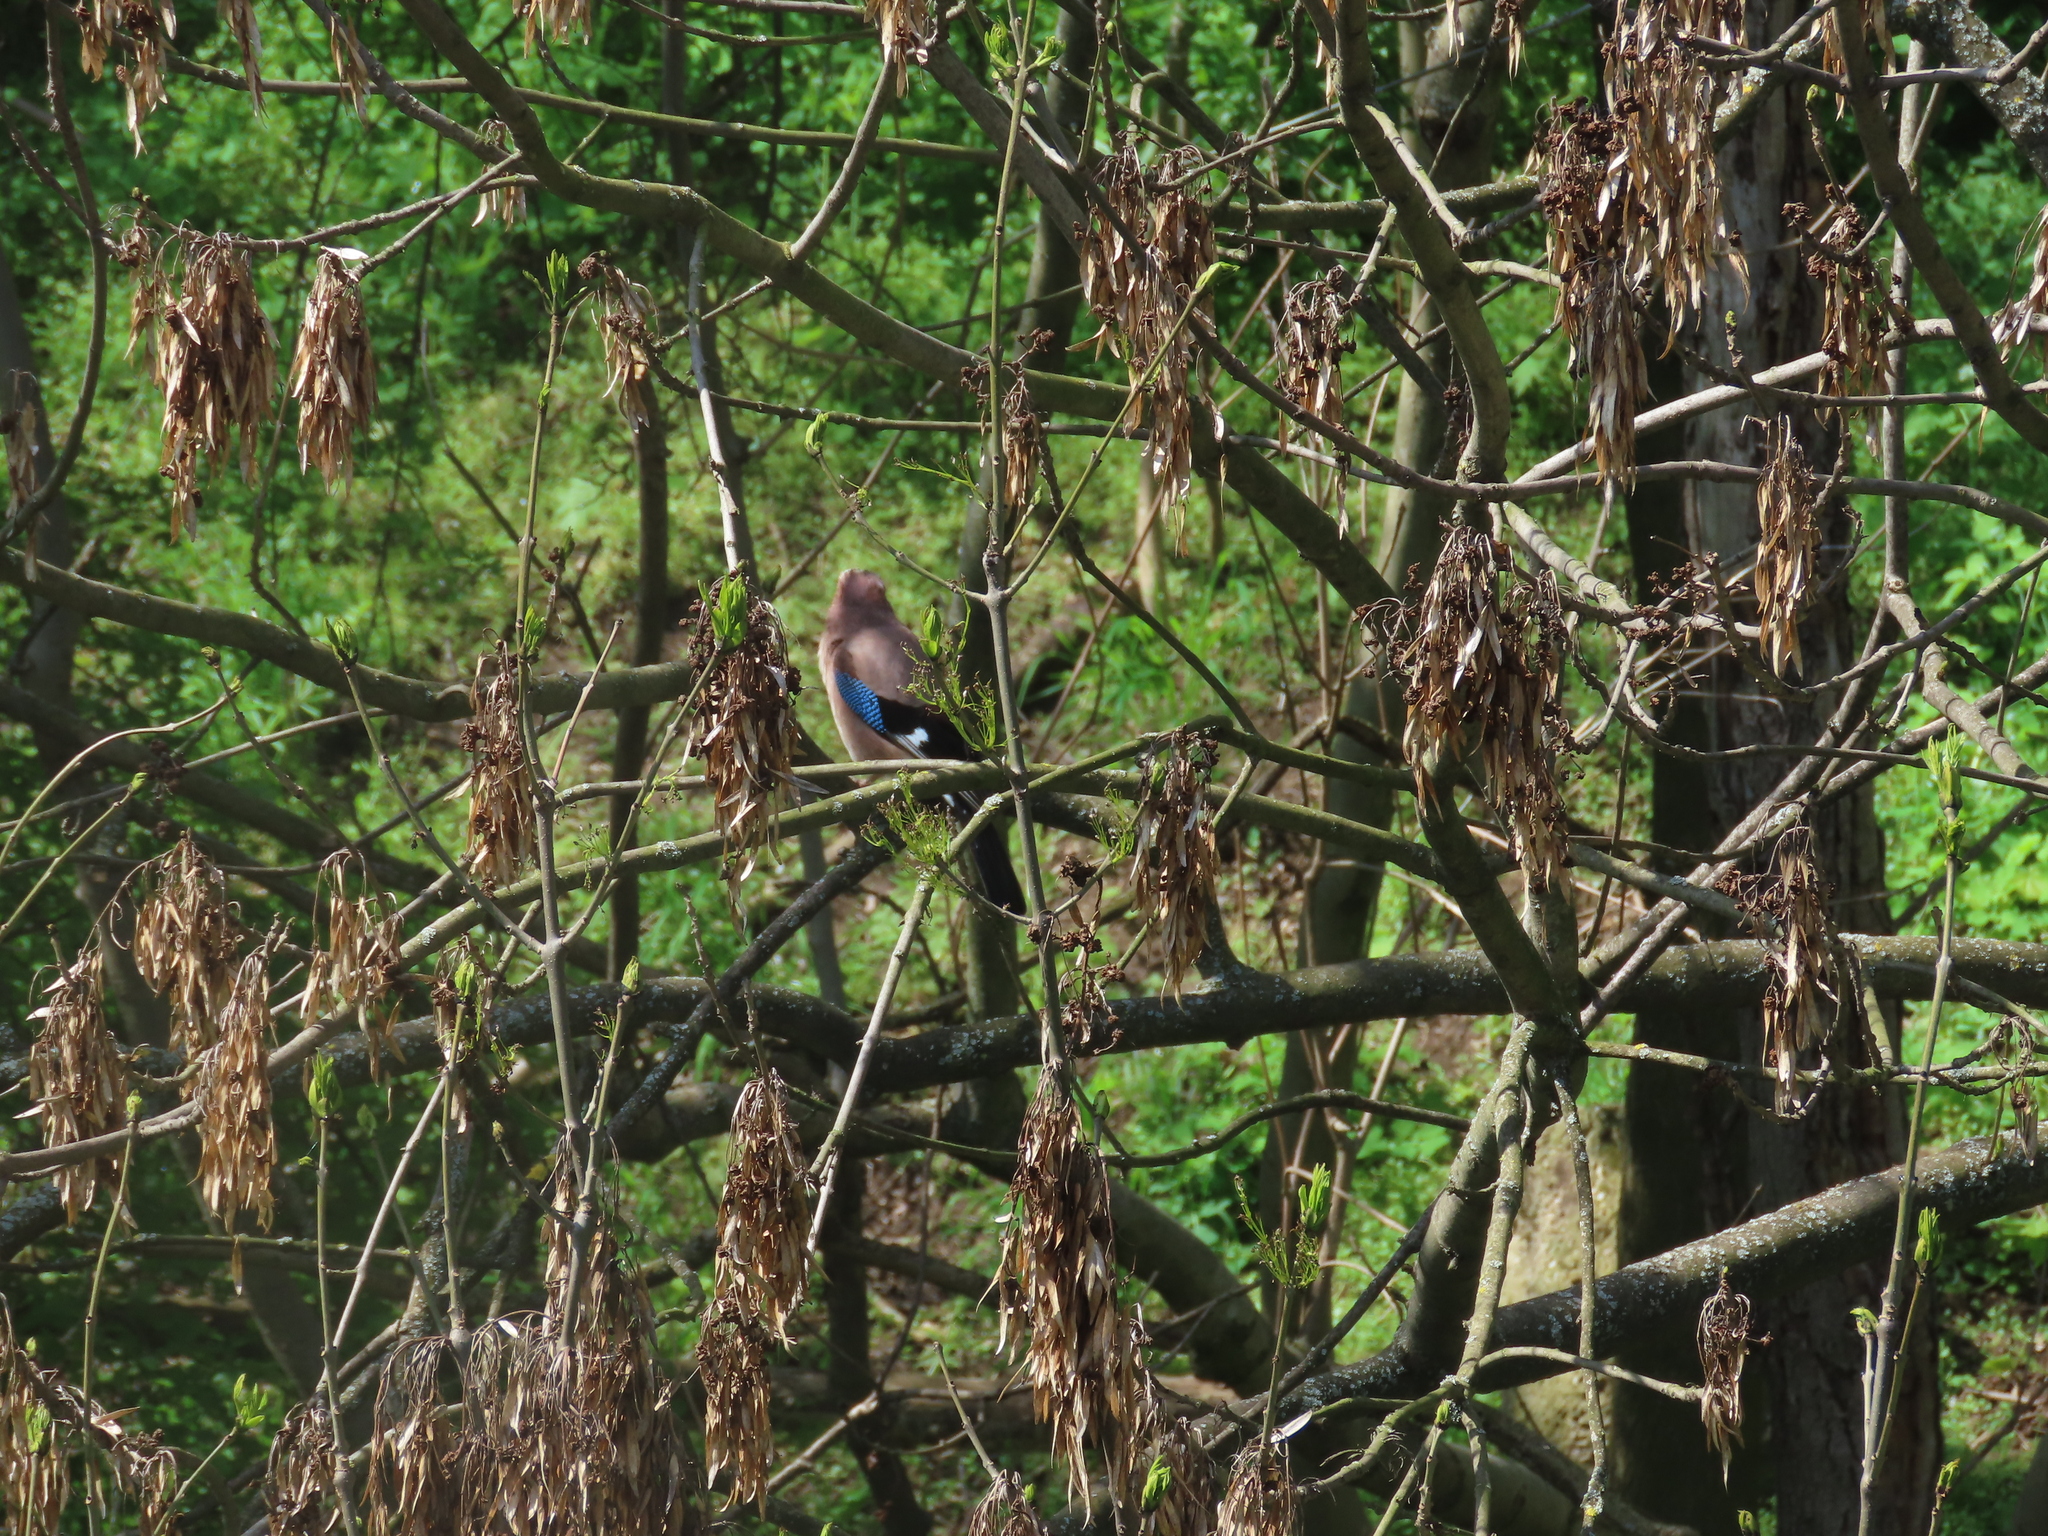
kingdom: Animalia
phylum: Chordata
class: Aves
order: Passeriformes
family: Corvidae
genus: Garrulus
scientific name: Garrulus glandarius
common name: Eurasian jay
